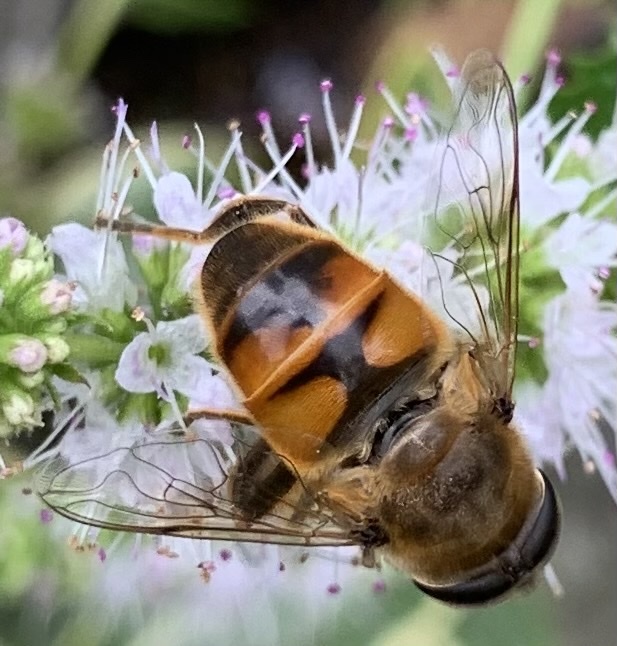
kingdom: Animalia
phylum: Arthropoda
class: Insecta
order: Diptera
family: Syrphidae
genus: Eristalis
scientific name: Eristalis tenax
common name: Drone fly
